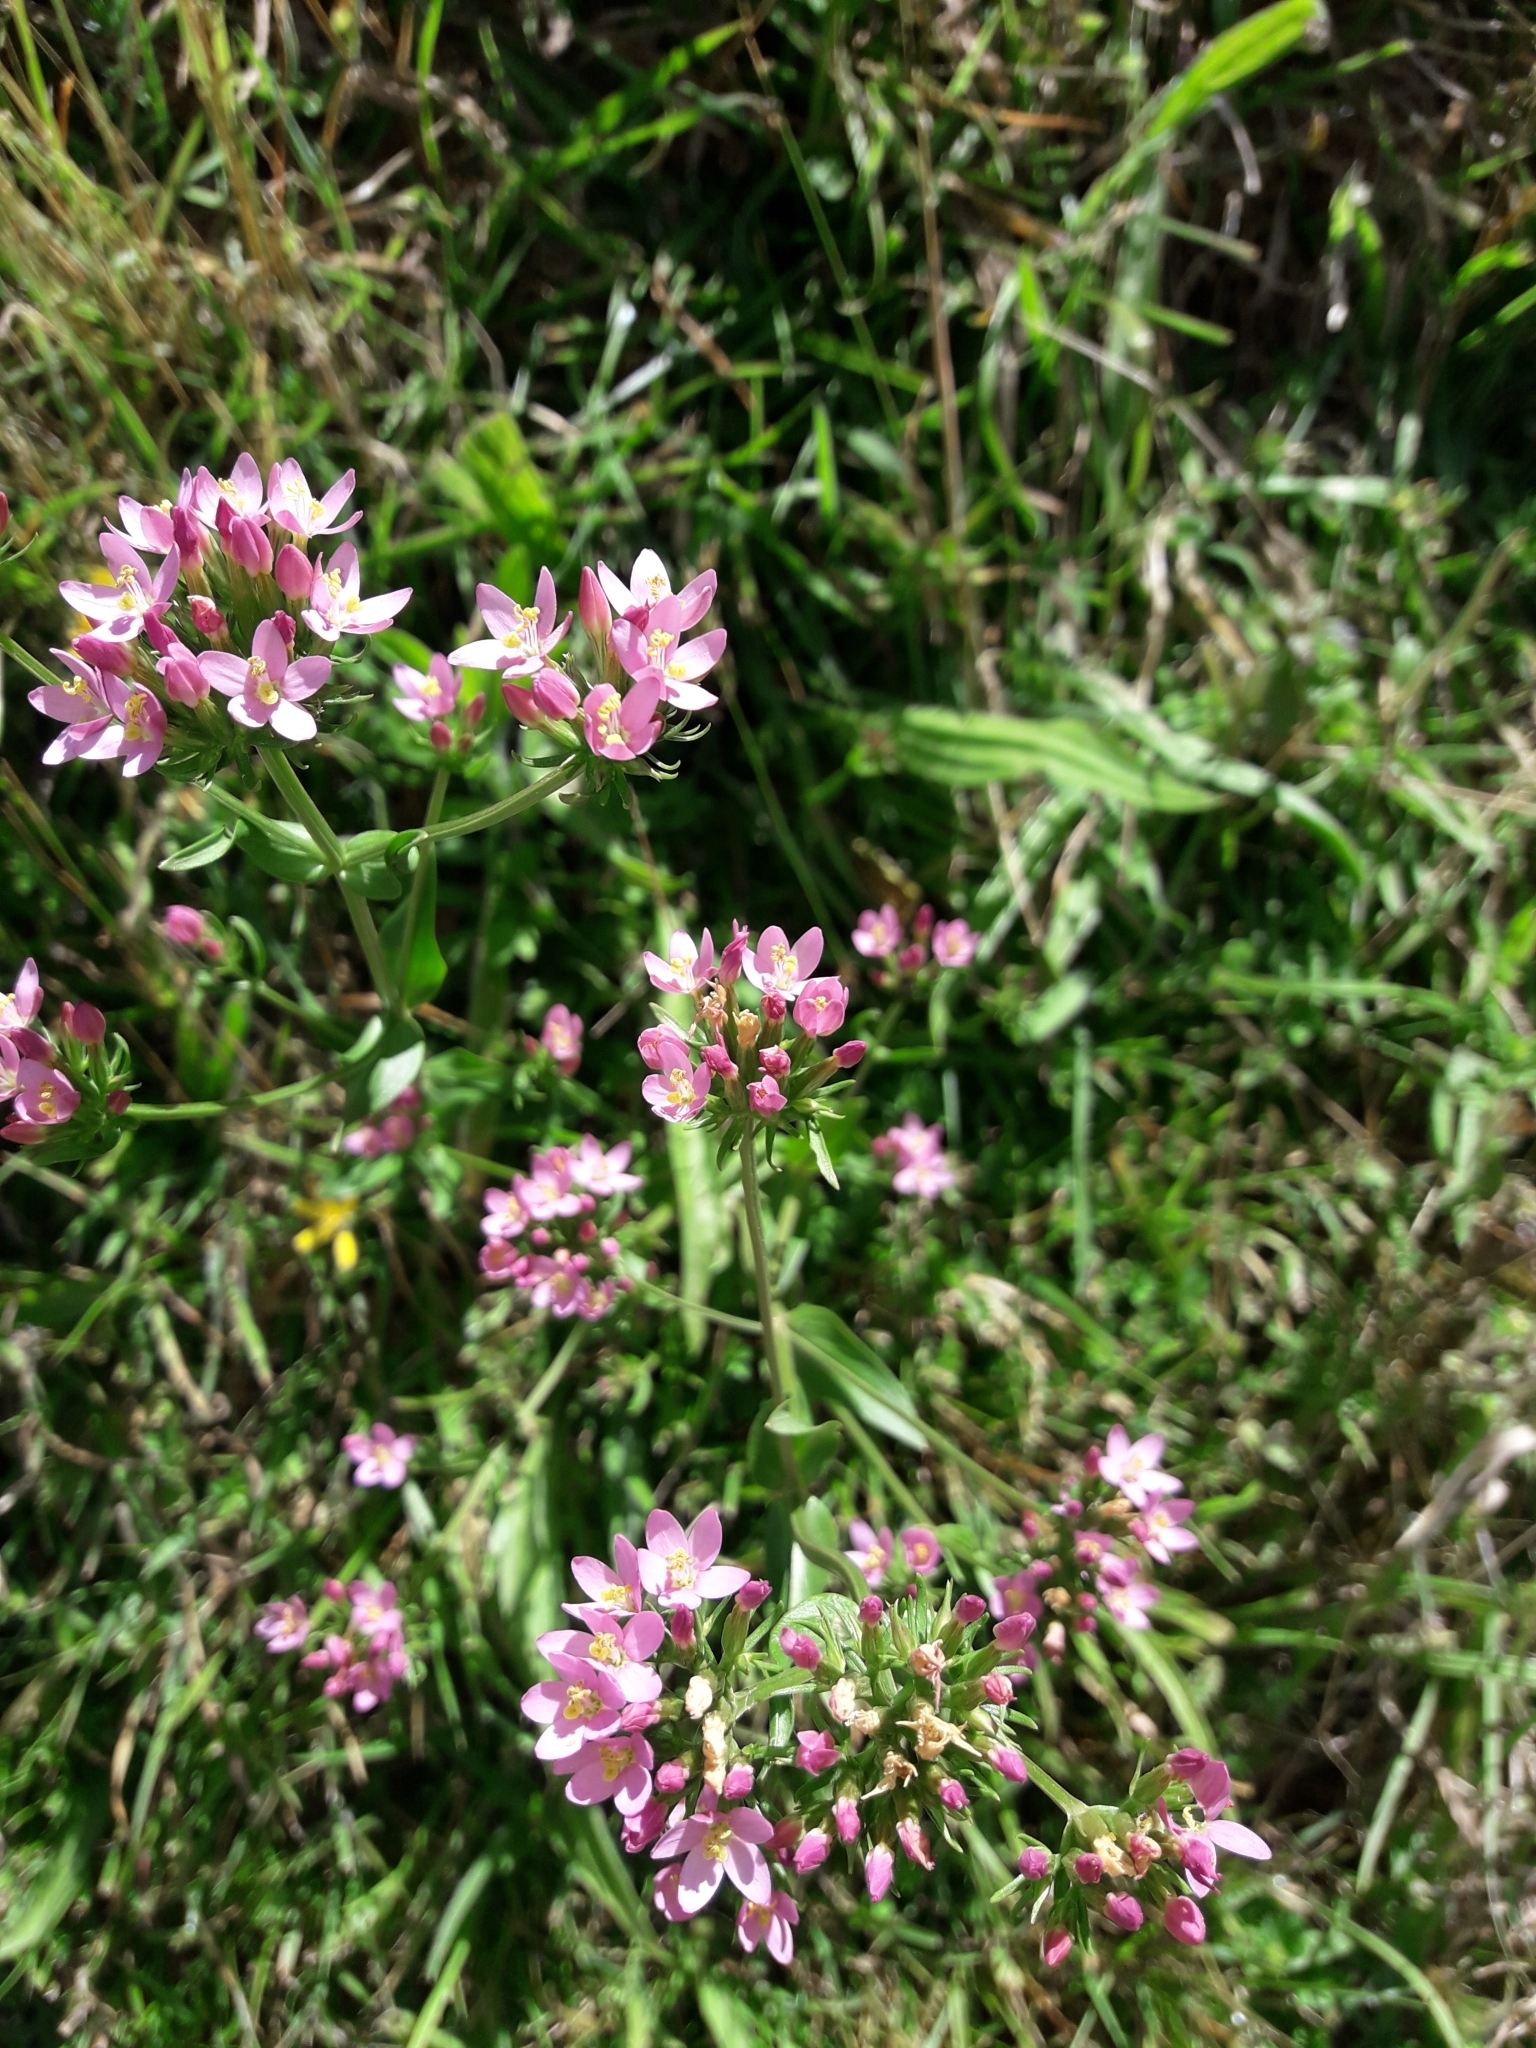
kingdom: Plantae
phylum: Tracheophyta
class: Magnoliopsida
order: Gentianales
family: Gentianaceae
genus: Centaurium
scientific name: Centaurium erythraea
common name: Common centaury
